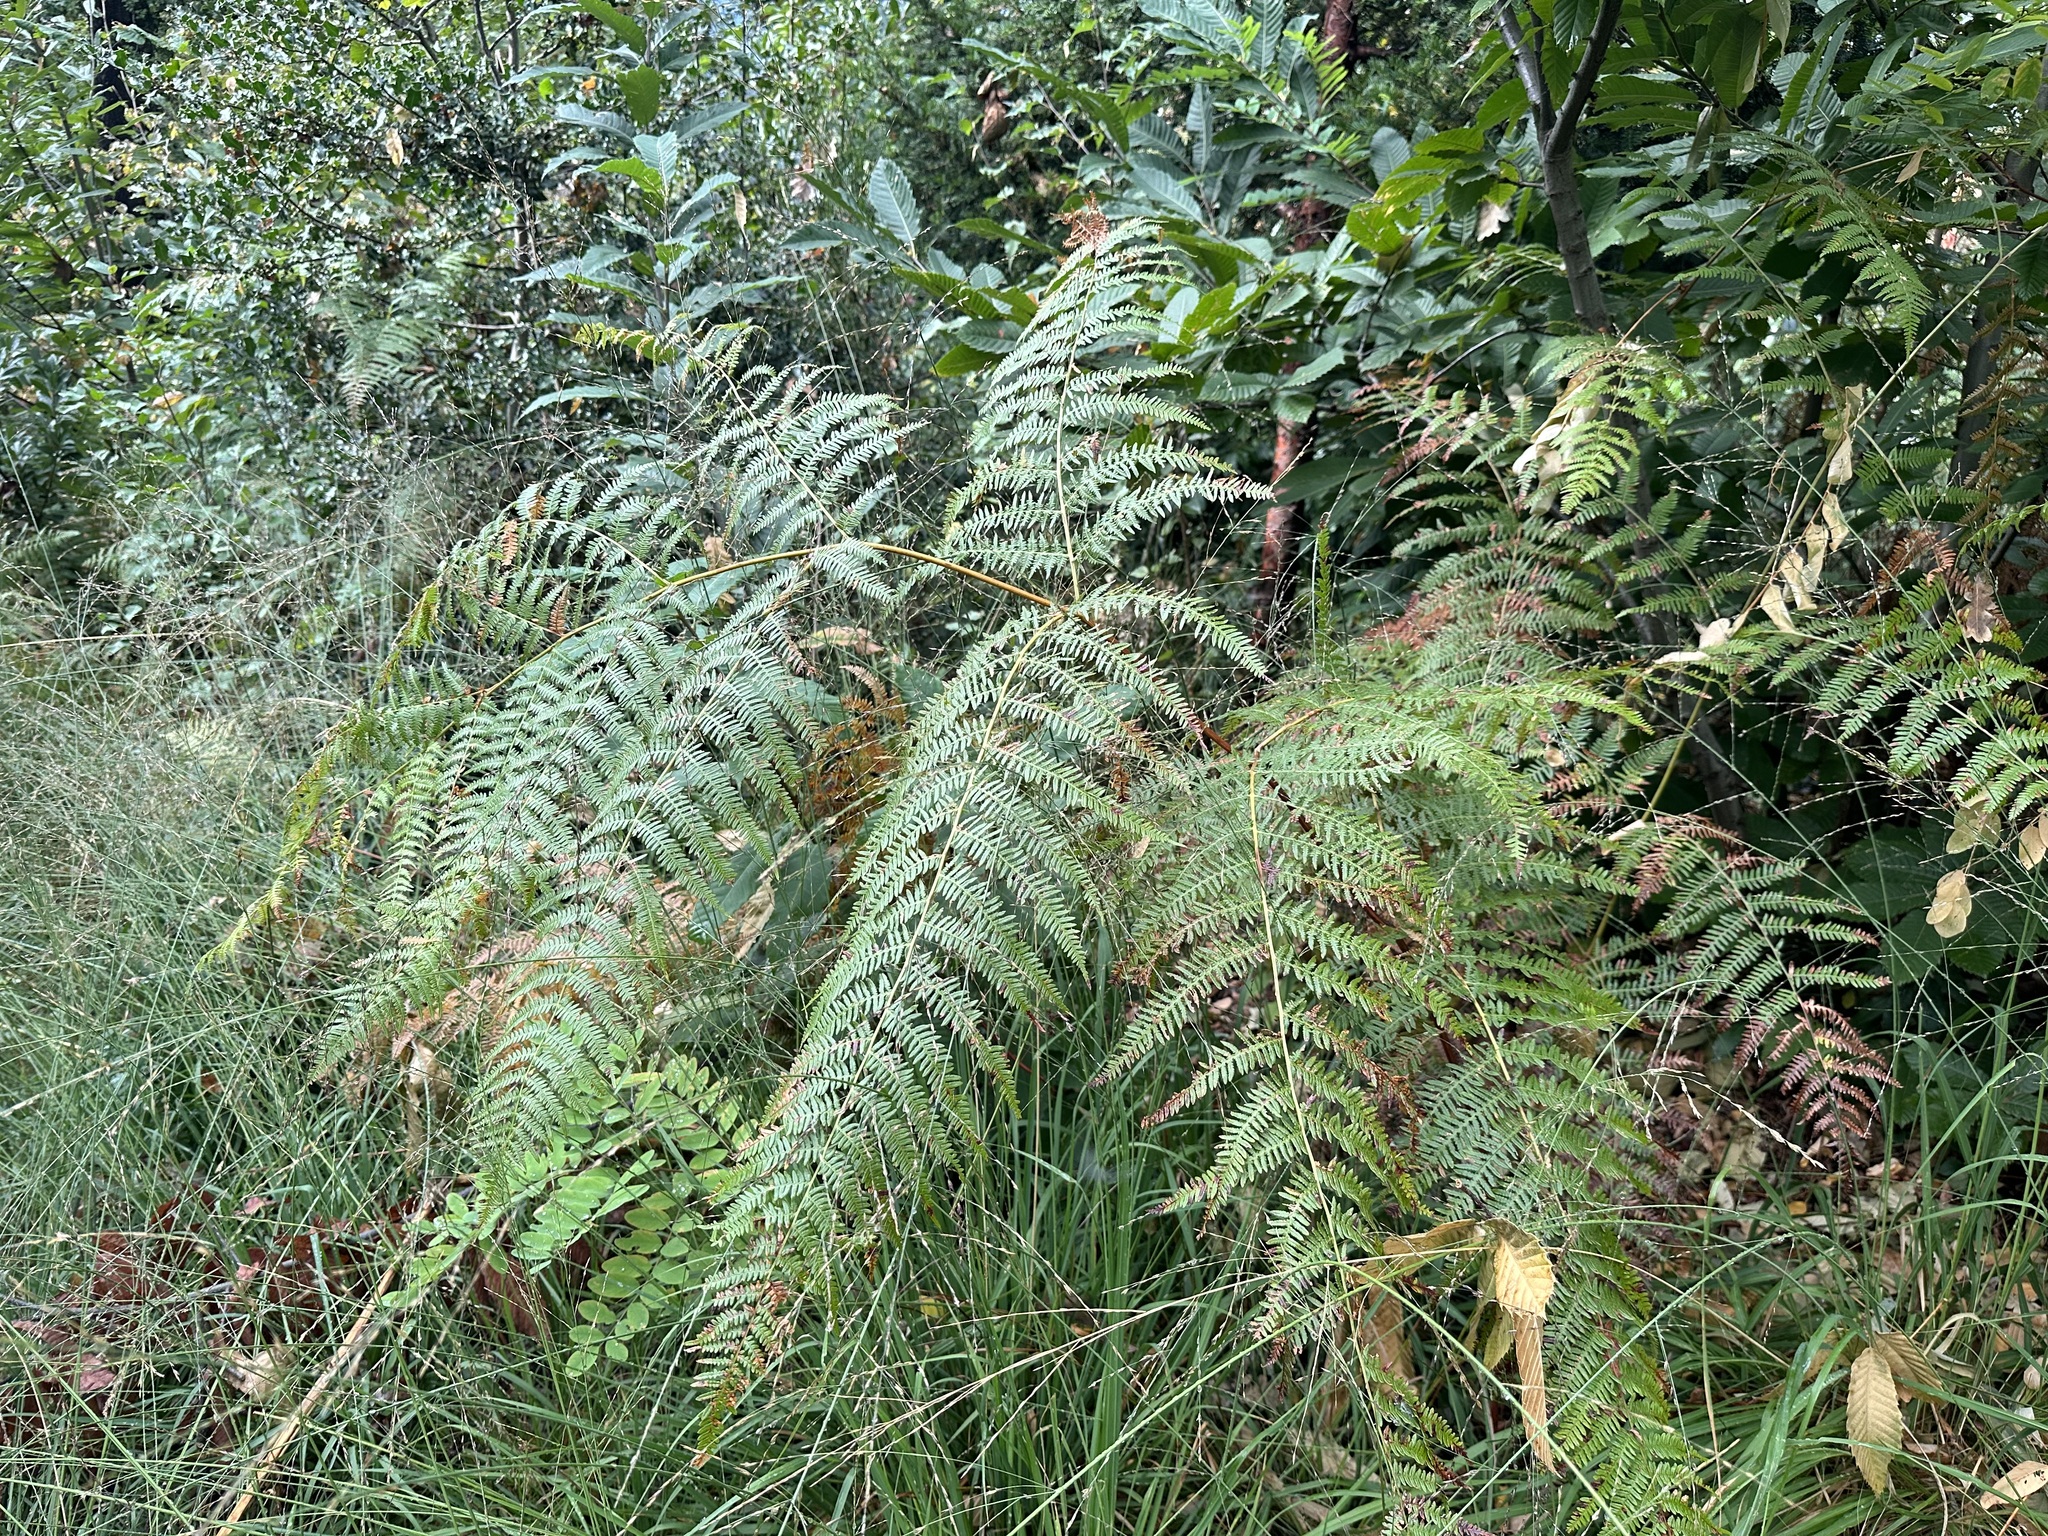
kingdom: Plantae
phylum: Tracheophyta
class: Polypodiopsida
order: Polypodiales
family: Dennstaedtiaceae
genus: Pteridium
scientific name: Pteridium aquilinum
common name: Bracken
